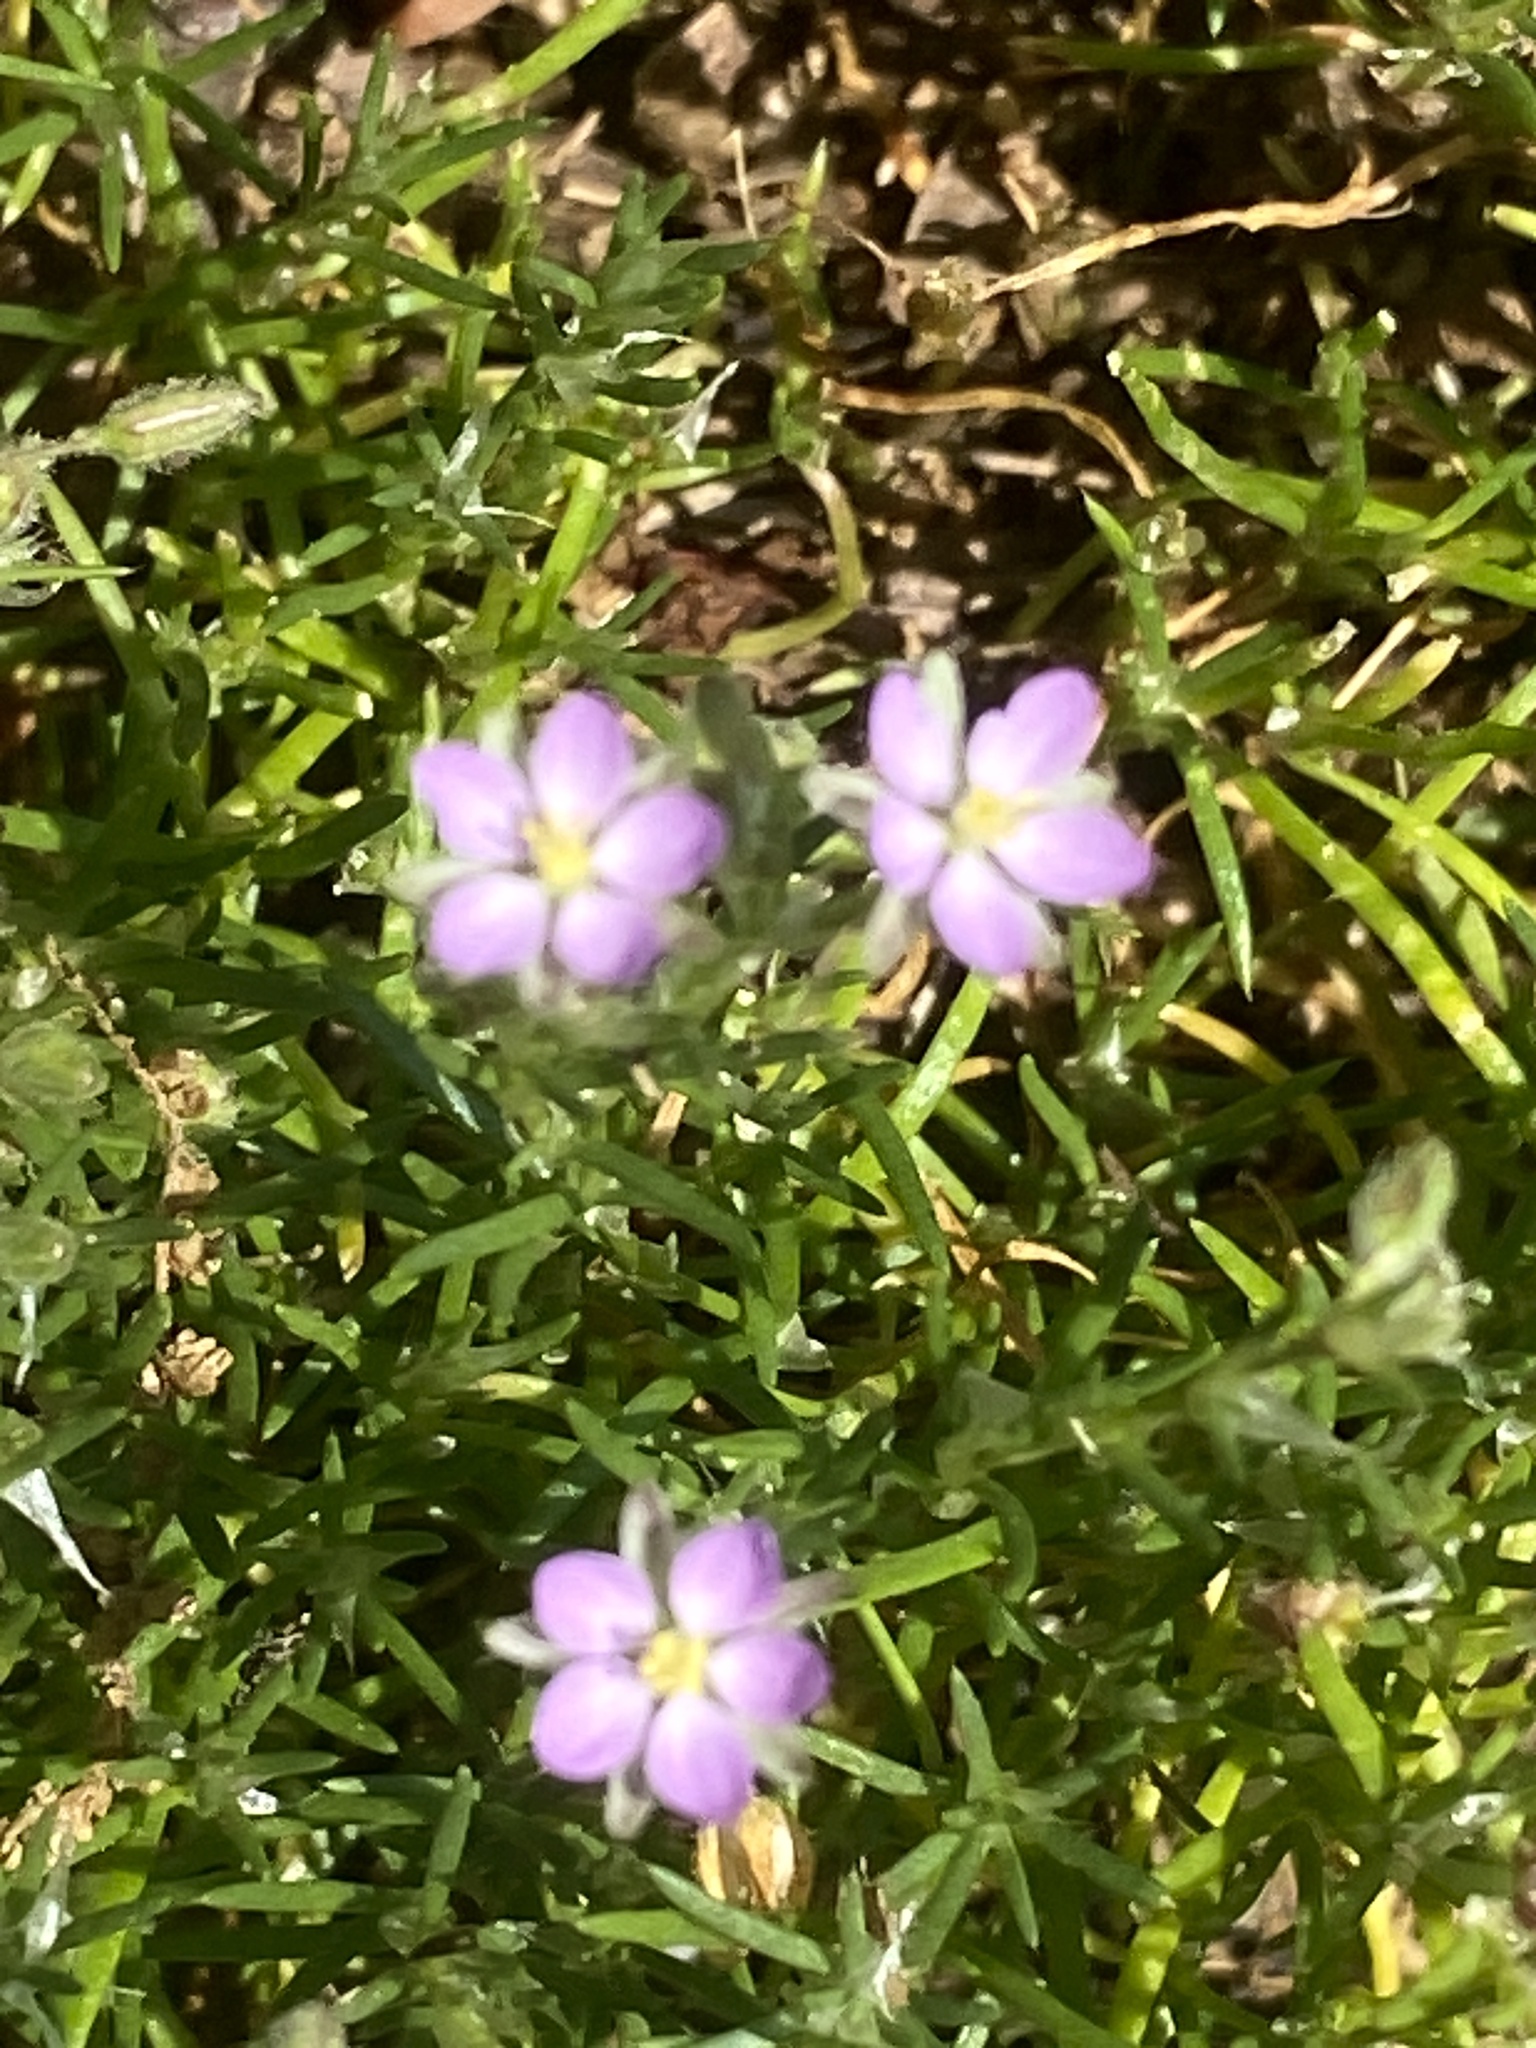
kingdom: Plantae
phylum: Tracheophyta
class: Magnoliopsida
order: Caryophyllales
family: Caryophyllaceae
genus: Spergularia
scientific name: Spergularia rubra
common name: Red sand-spurrey
